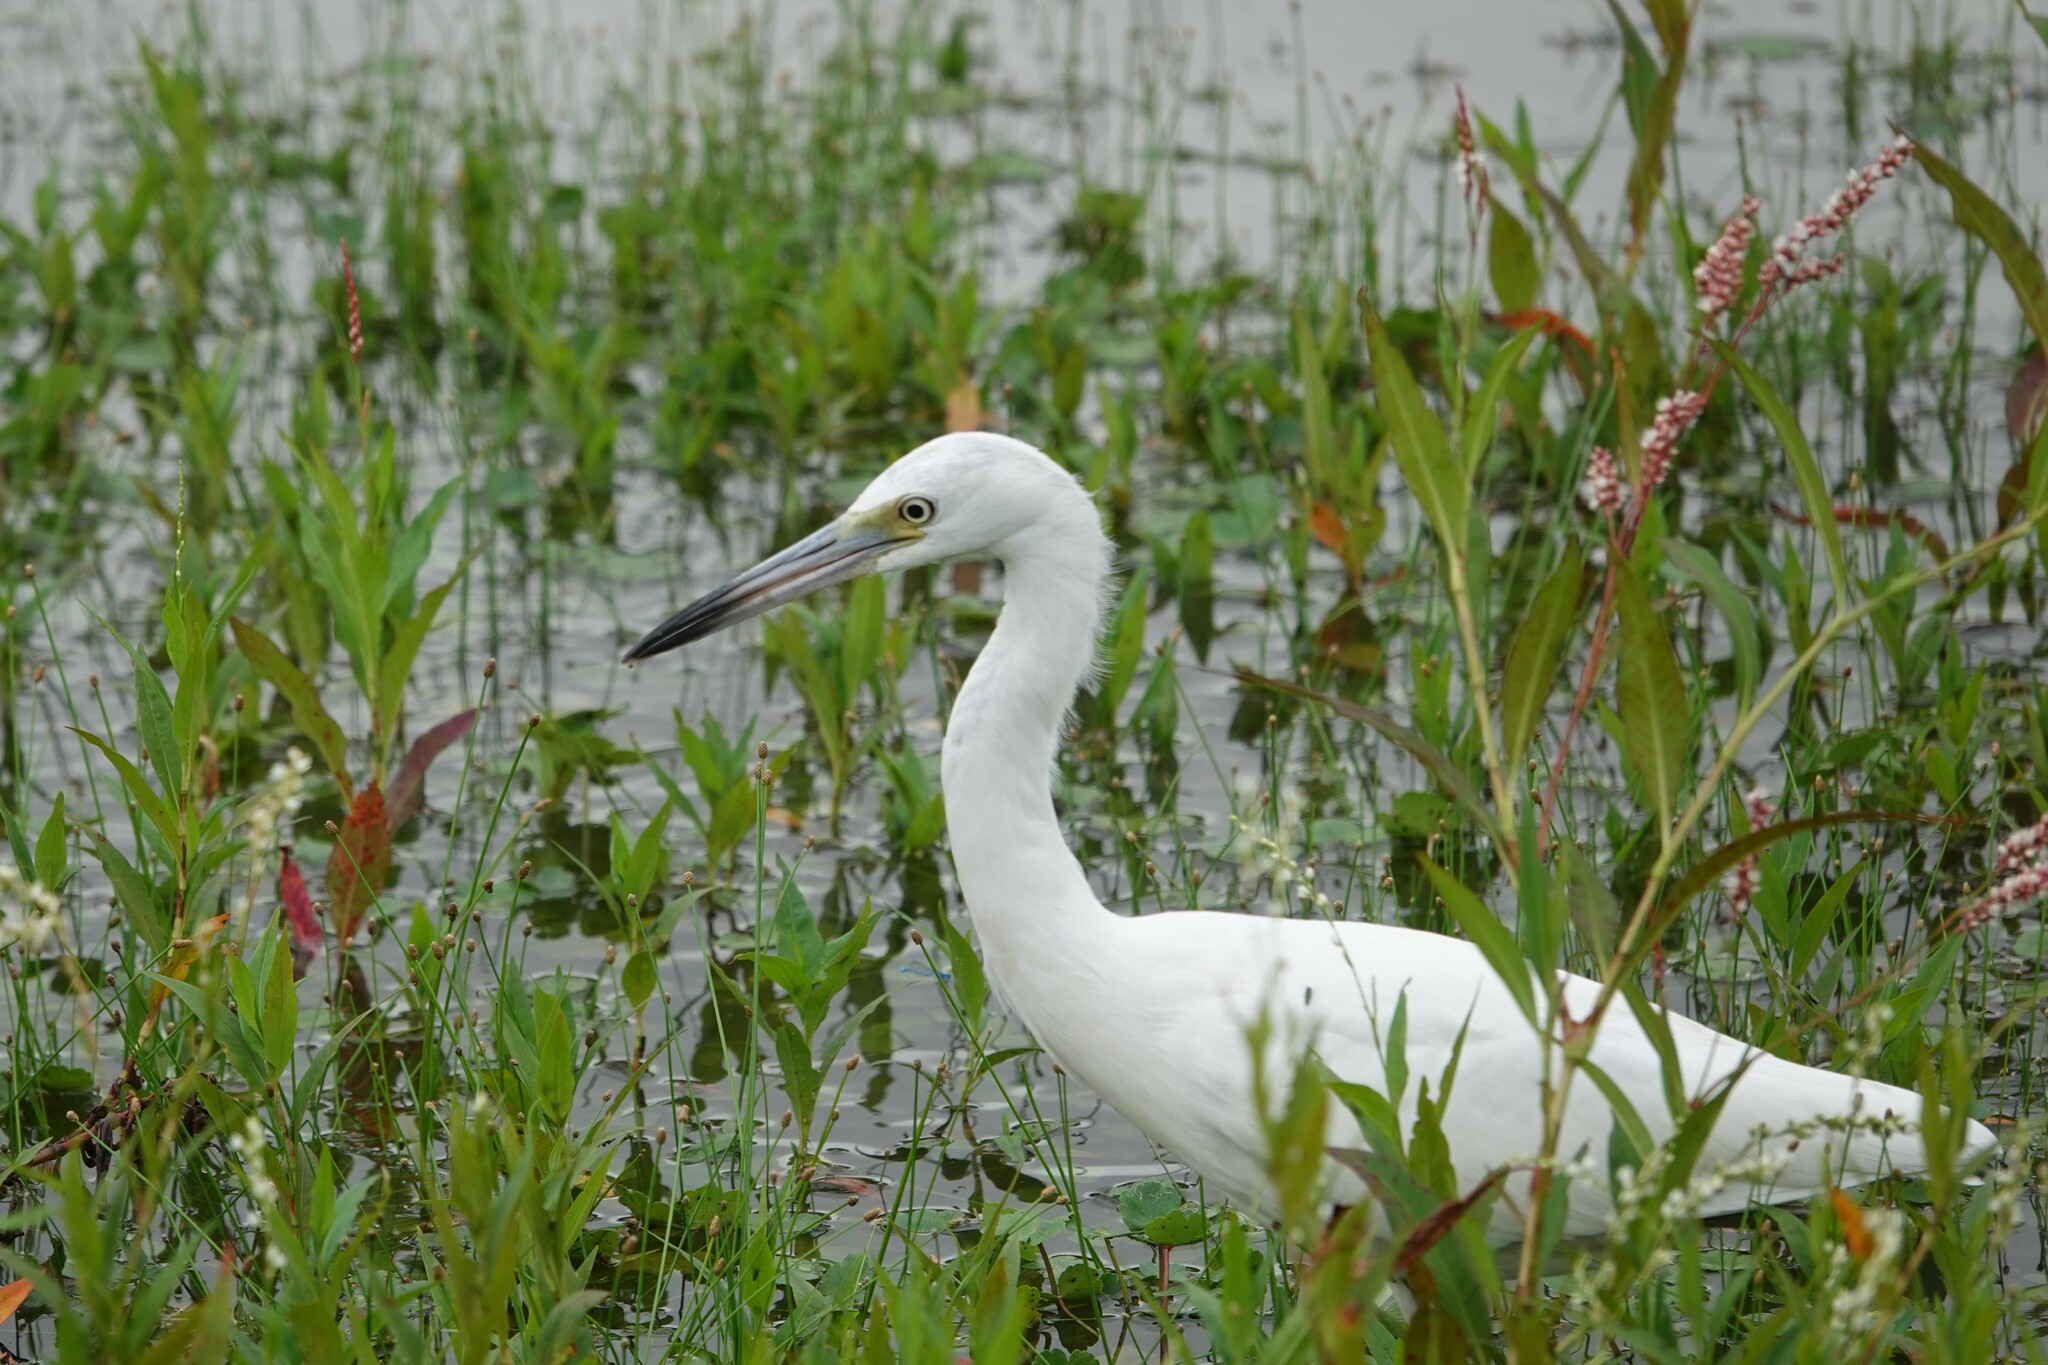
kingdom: Animalia
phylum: Chordata
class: Aves
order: Pelecaniformes
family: Ardeidae
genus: Egretta
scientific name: Egretta caerulea
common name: Little blue heron
